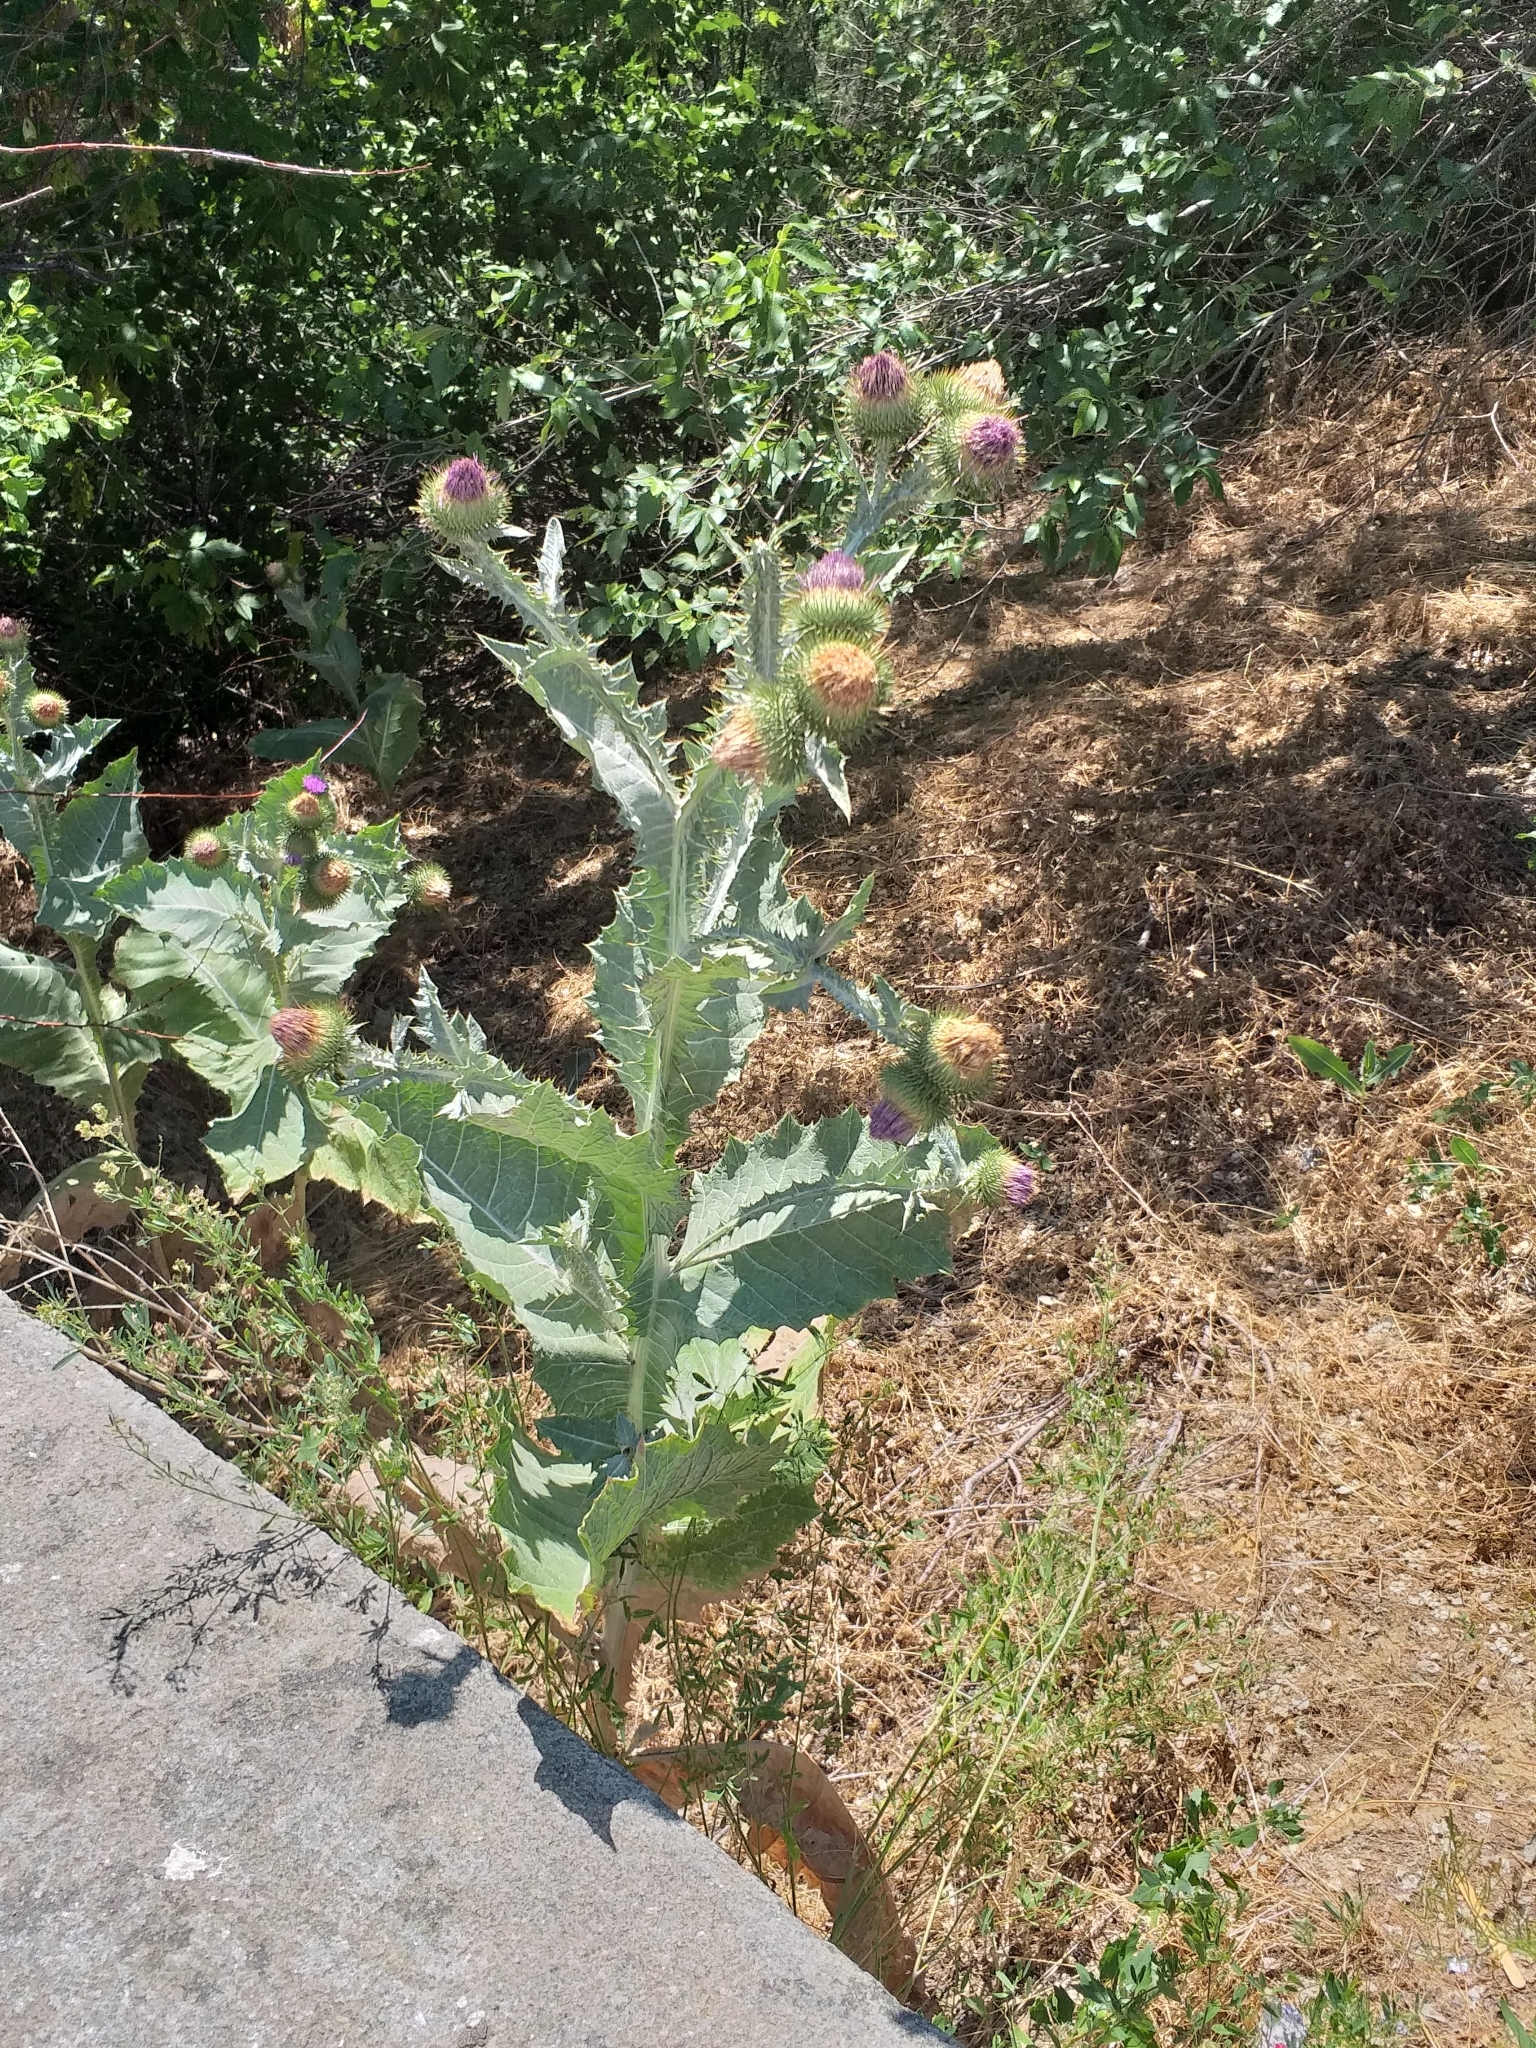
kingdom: Plantae
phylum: Tracheophyta
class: Magnoliopsida
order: Asterales
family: Asteraceae
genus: Onopordum
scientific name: Onopordum acanthium
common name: Scotch thistle
